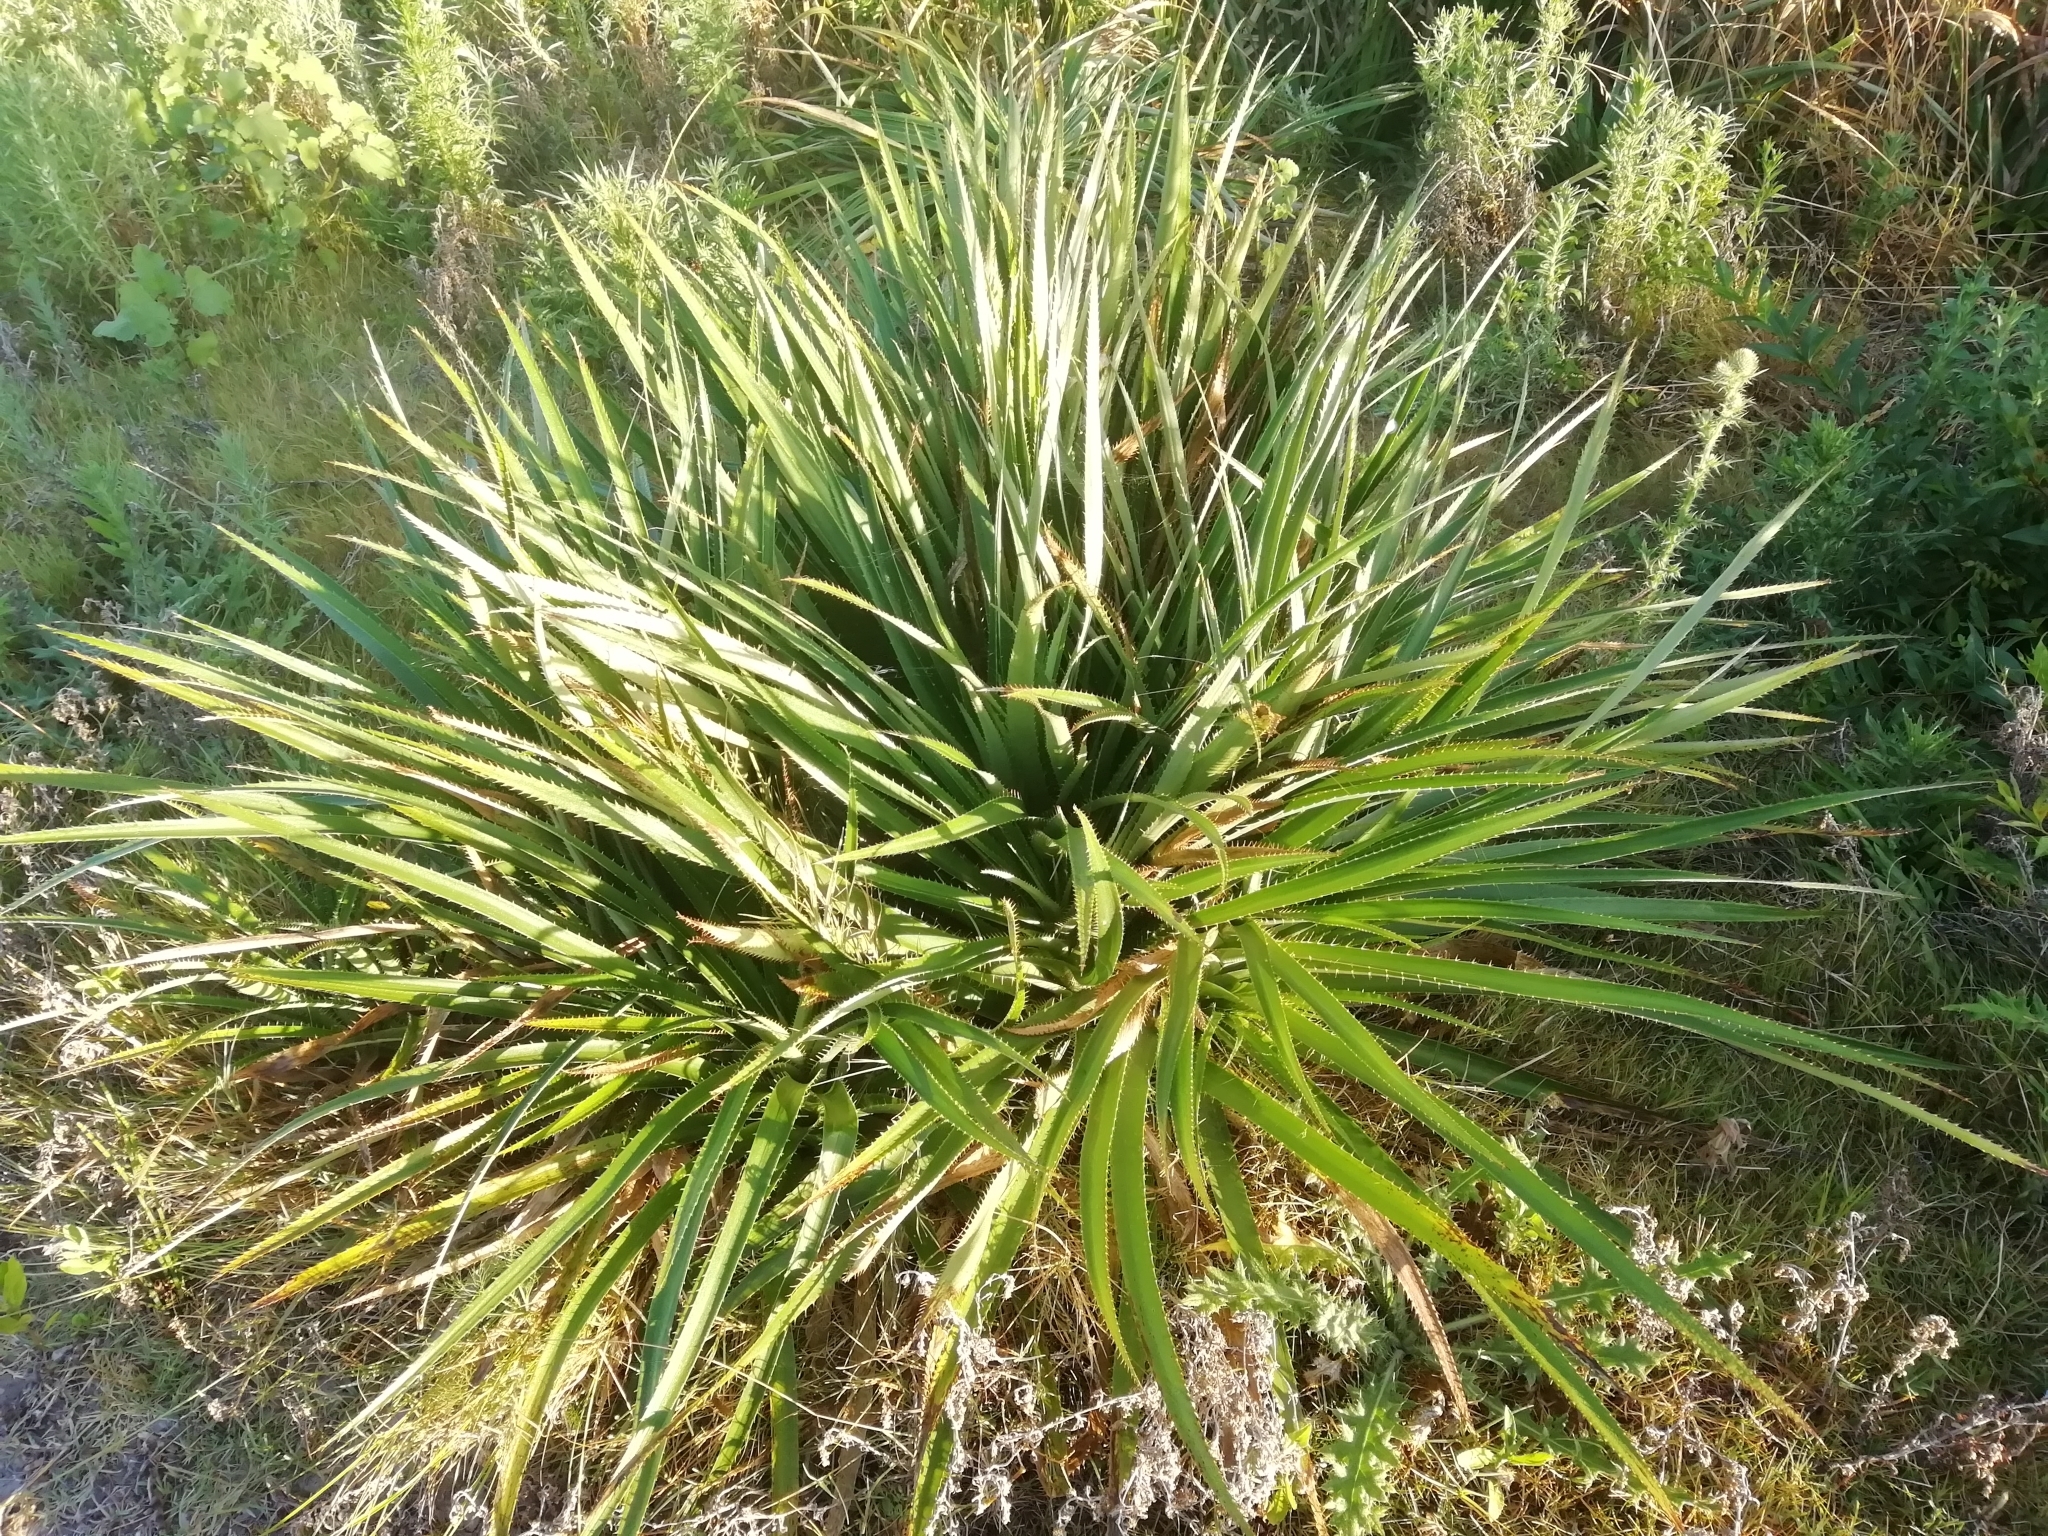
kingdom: Plantae
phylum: Tracheophyta
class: Magnoliopsida
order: Apiales
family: Apiaceae
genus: Eryngium
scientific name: Eryngium eburneum
